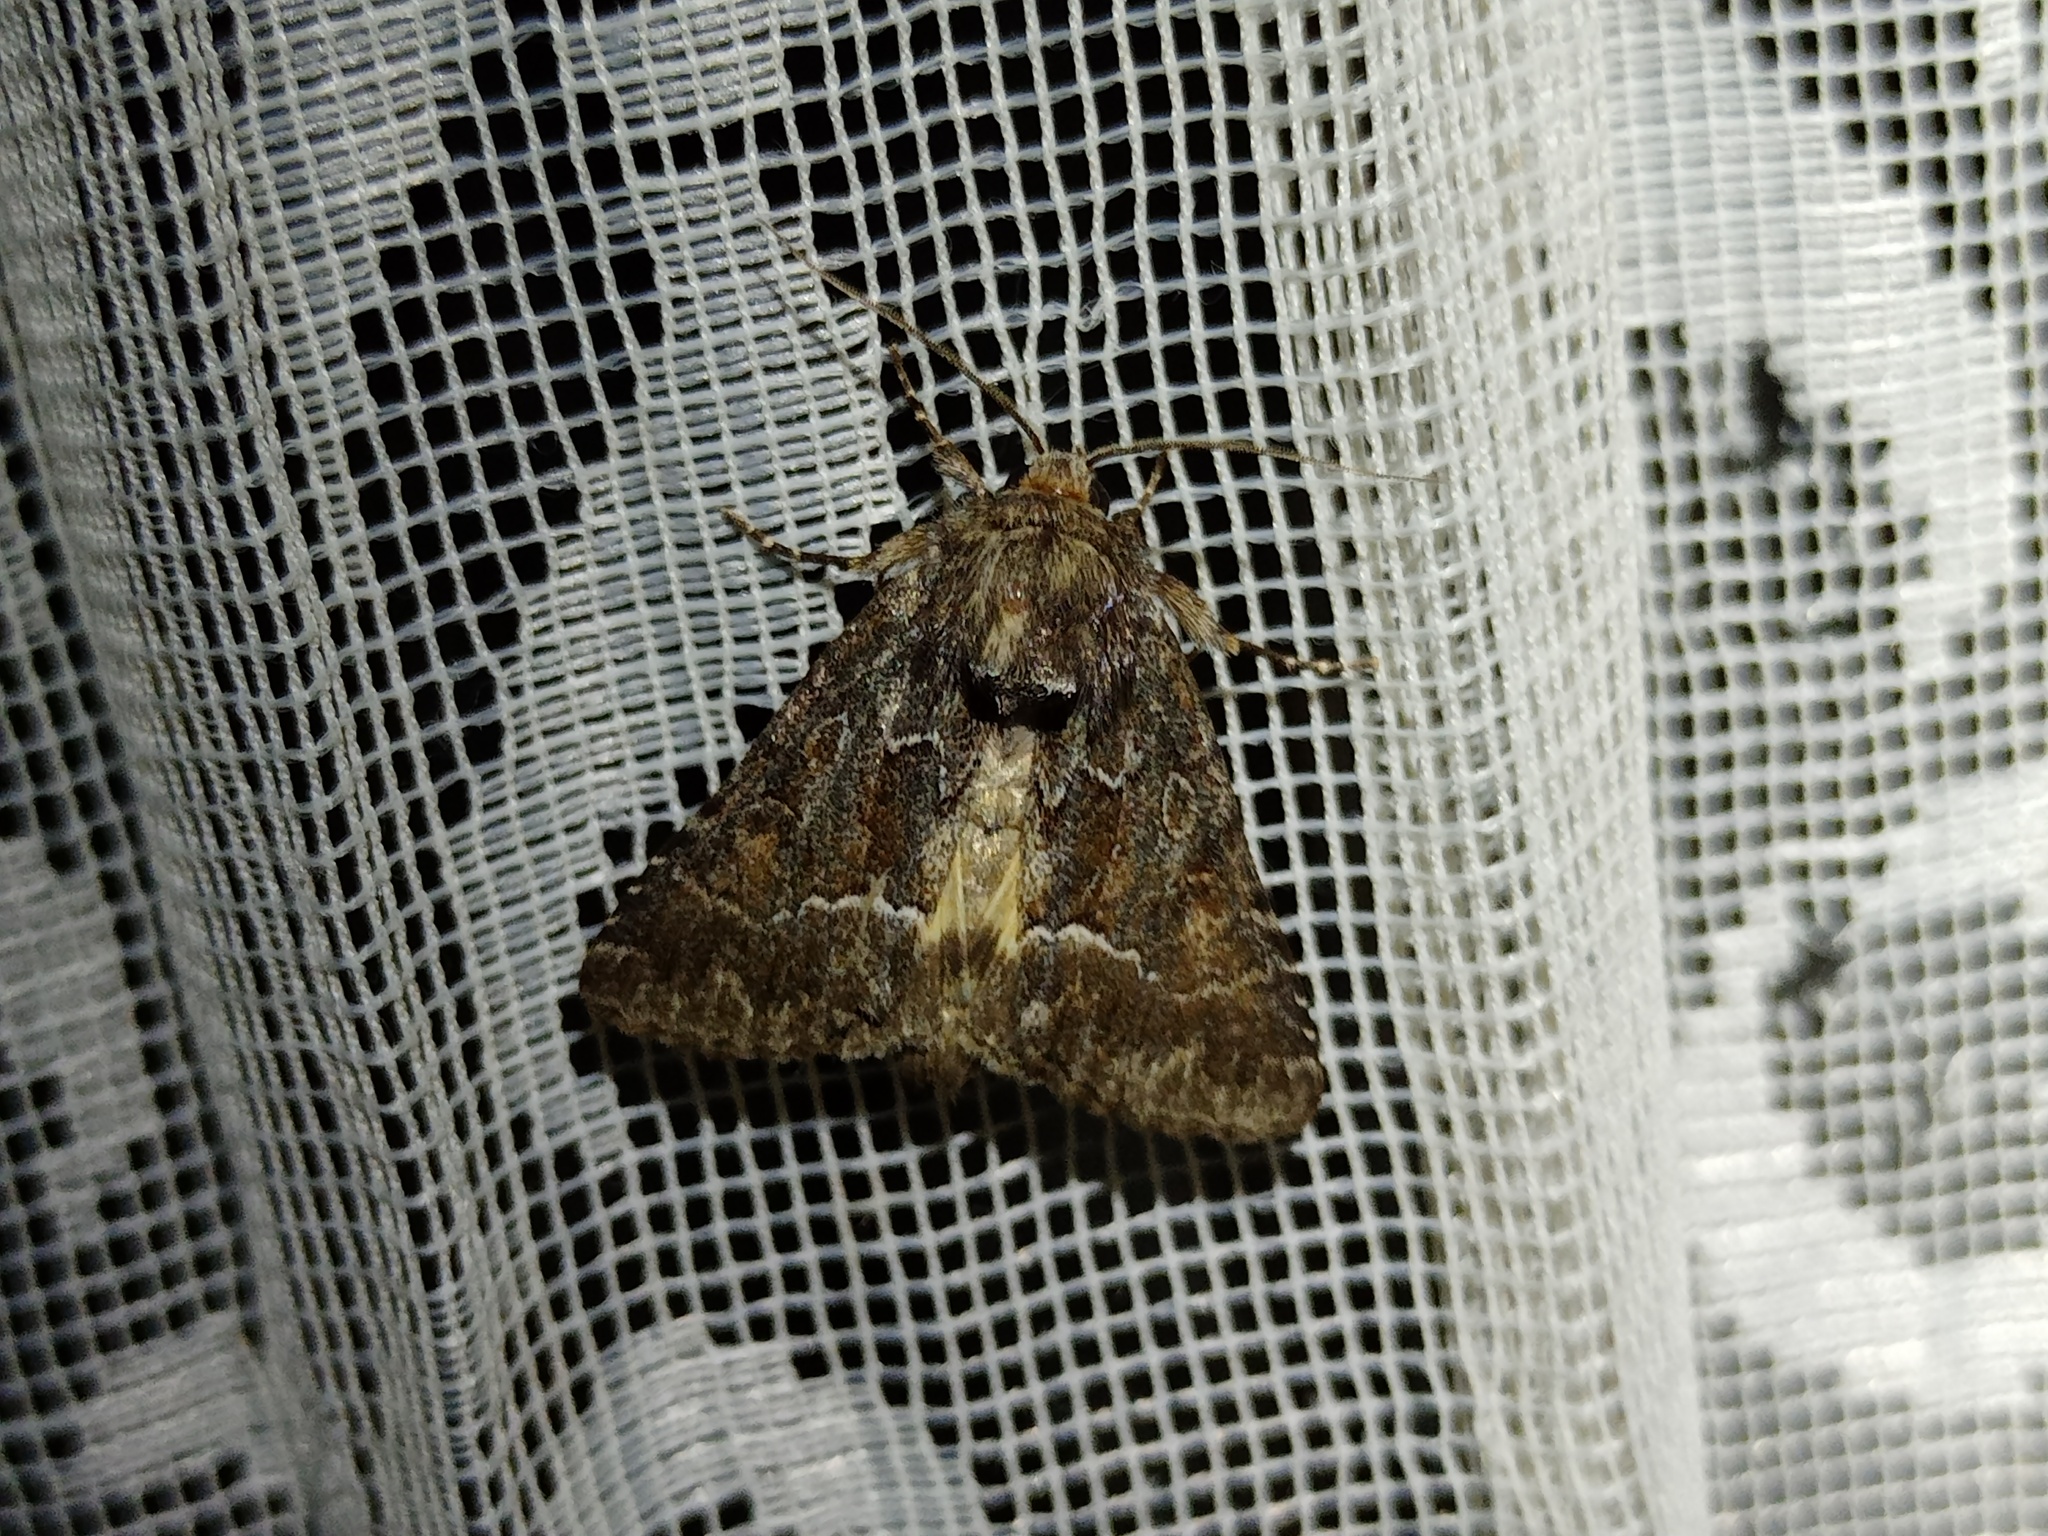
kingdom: Animalia
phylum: Arthropoda
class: Insecta
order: Lepidoptera
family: Noctuidae
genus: Thalpophila
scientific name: Thalpophila matura
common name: Straw underwing
